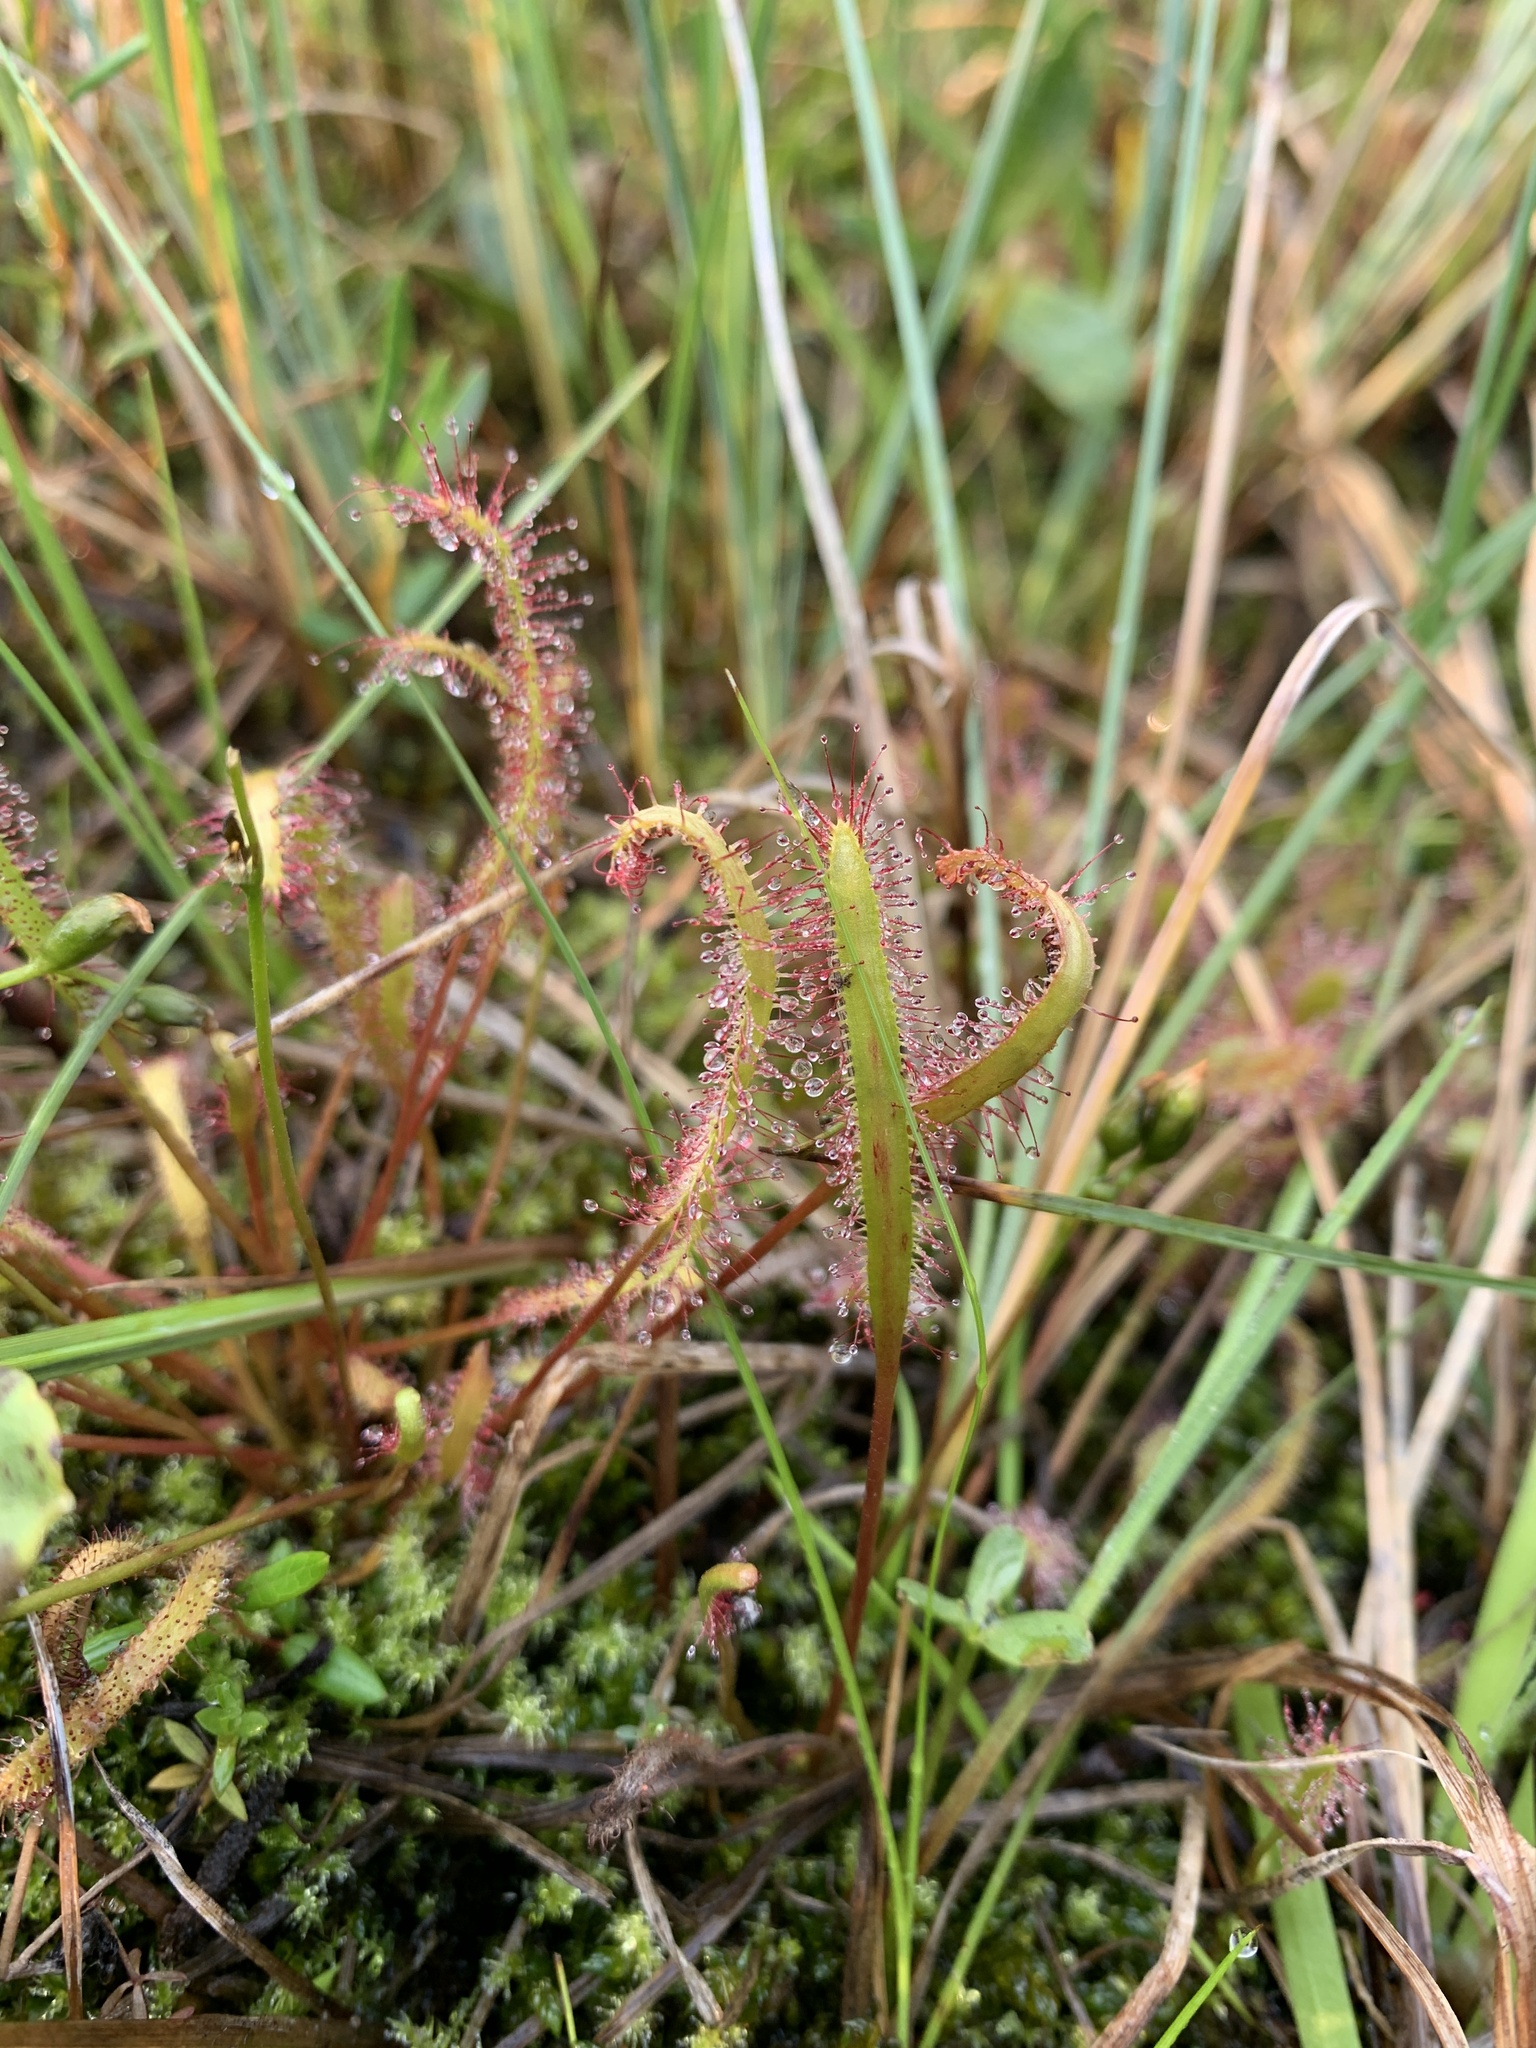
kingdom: Plantae
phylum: Tracheophyta
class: Magnoliopsida
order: Caryophyllales
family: Droseraceae
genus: Drosera
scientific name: Drosera linearis
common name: Linear-leaved sundew
